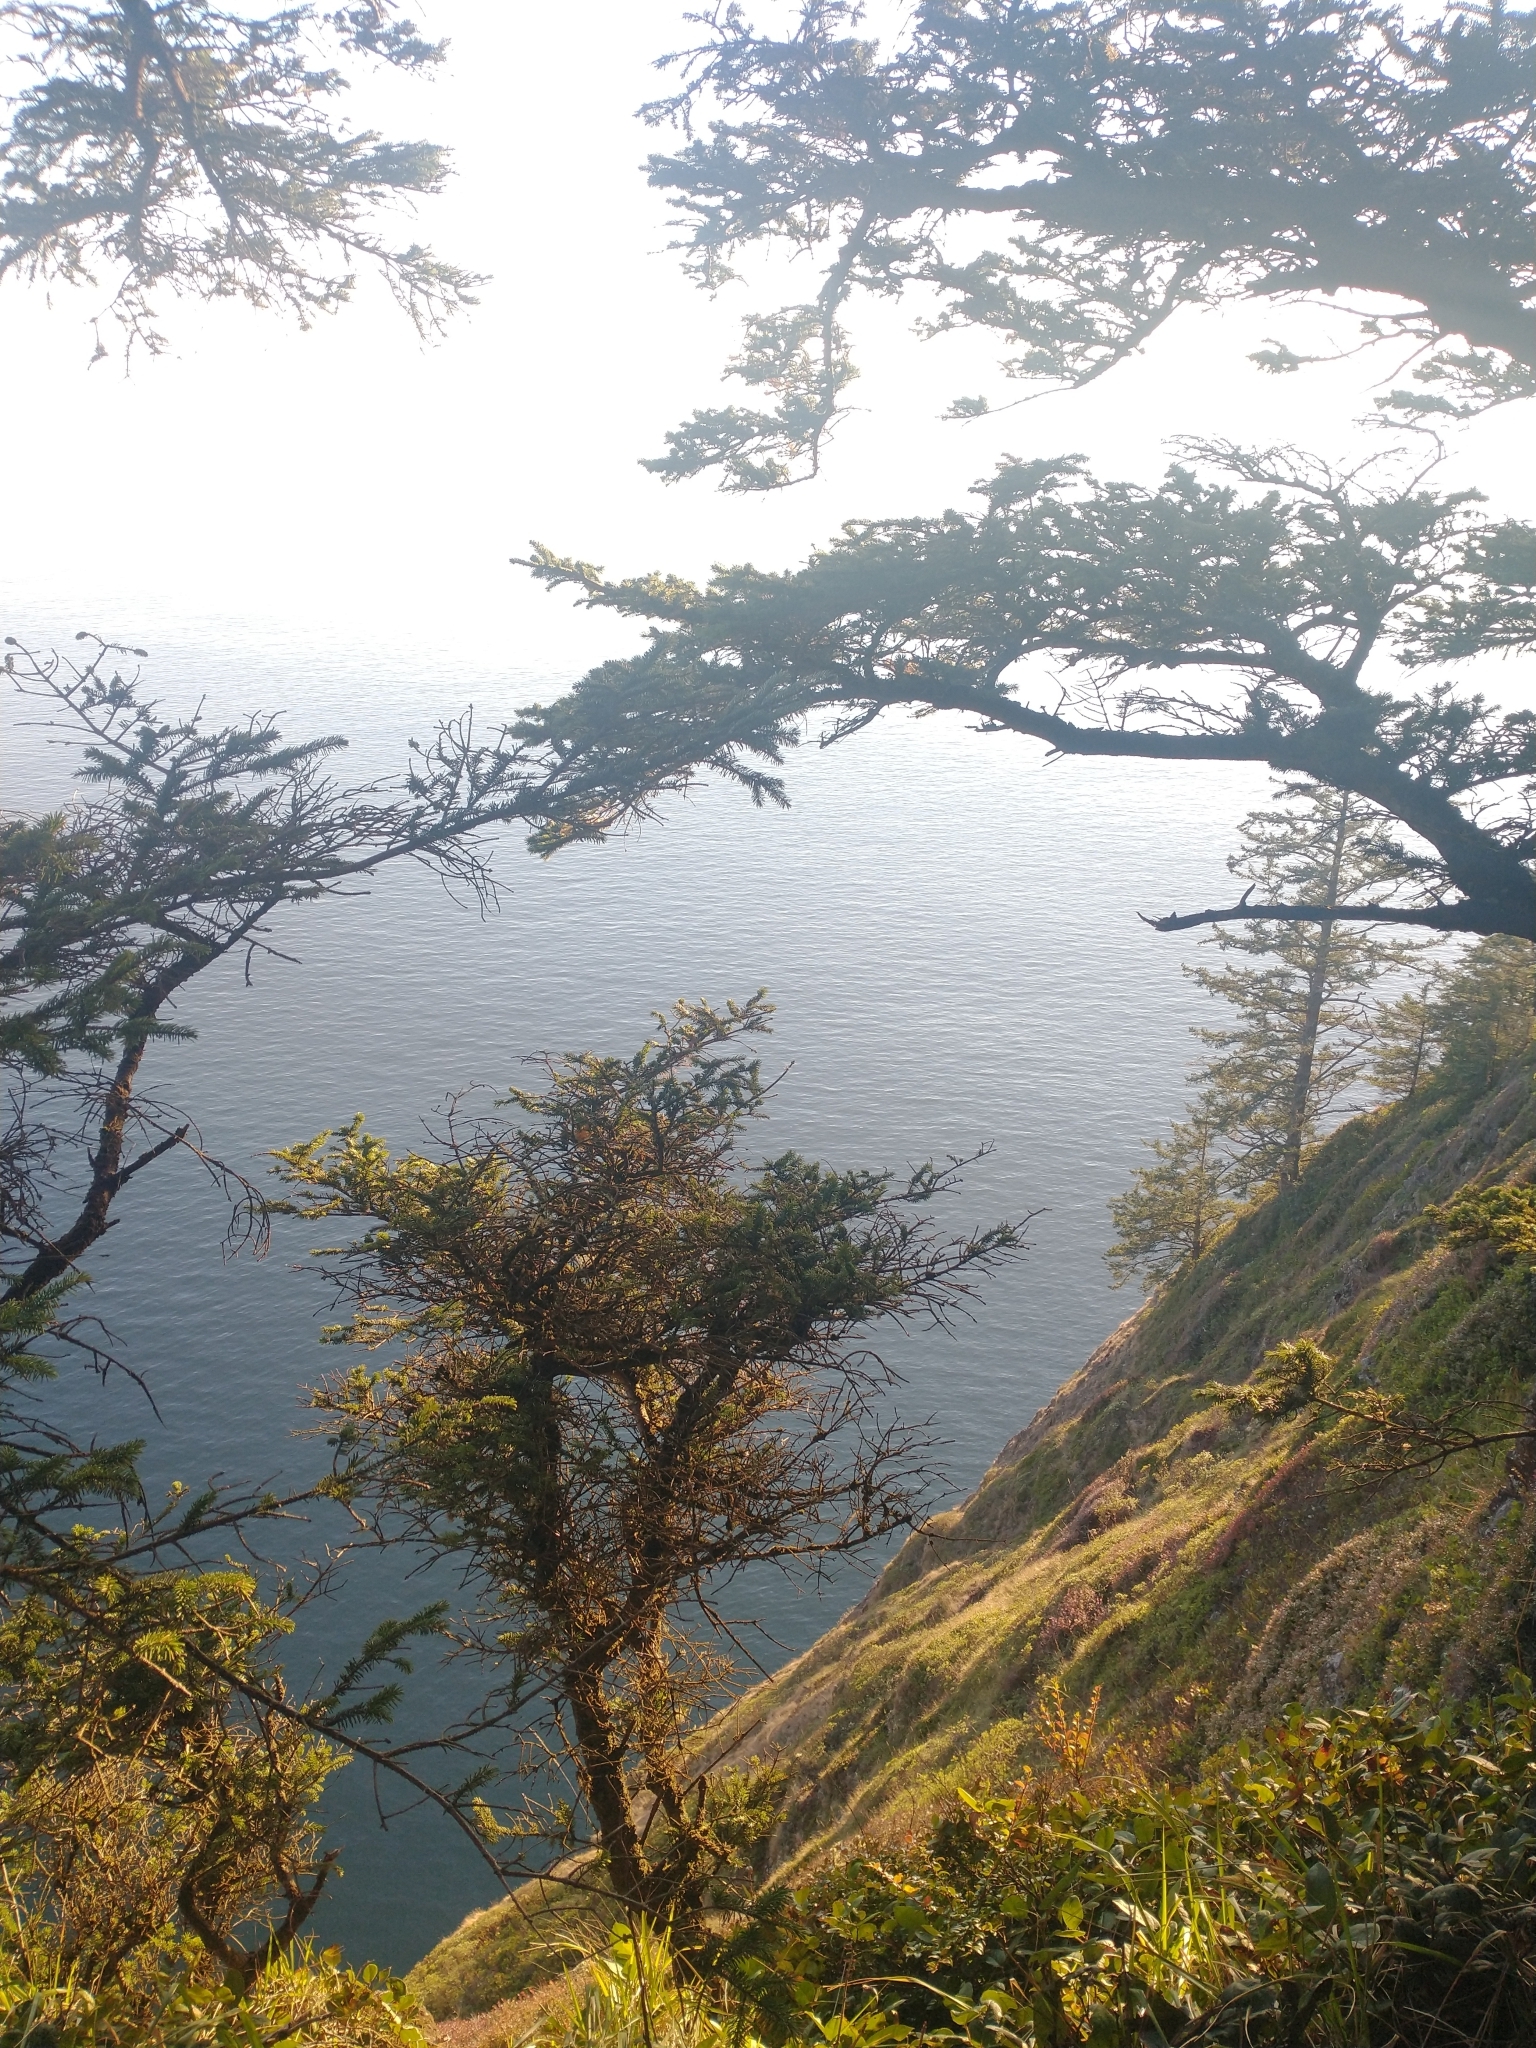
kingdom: Plantae
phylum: Tracheophyta
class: Pinopsida
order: Pinales
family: Pinaceae
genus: Picea
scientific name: Picea sitchensis
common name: Sitka spruce
